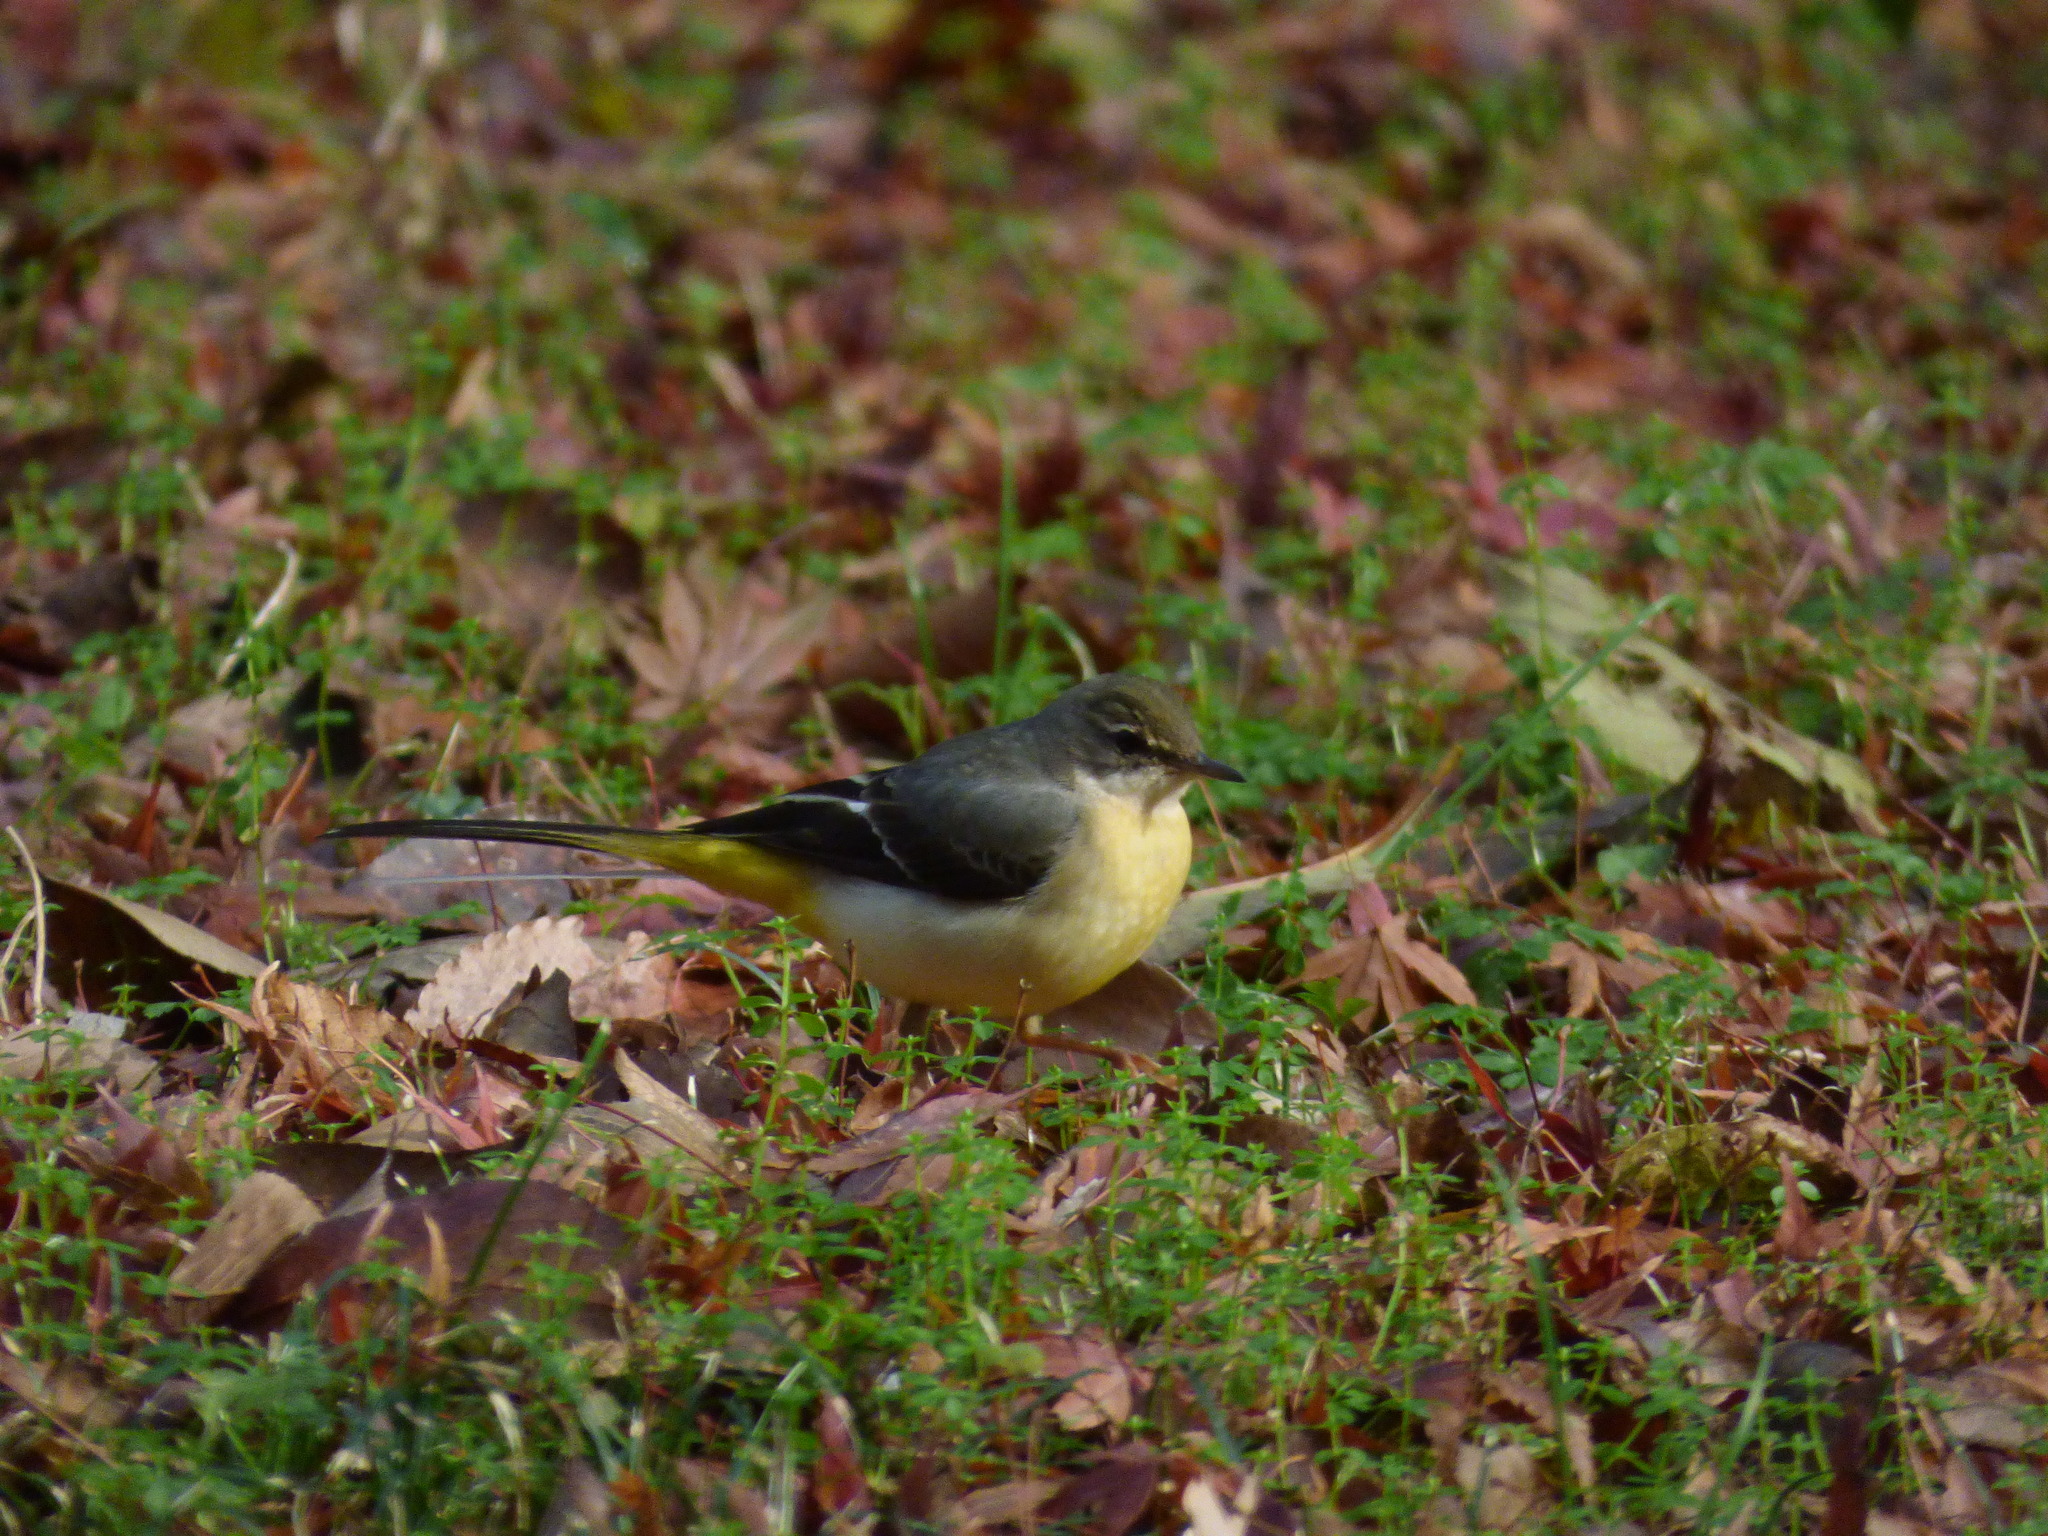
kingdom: Animalia
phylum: Chordata
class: Aves
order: Passeriformes
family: Motacillidae
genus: Motacilla
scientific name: Motacilla cinerea
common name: Grey wagtail
